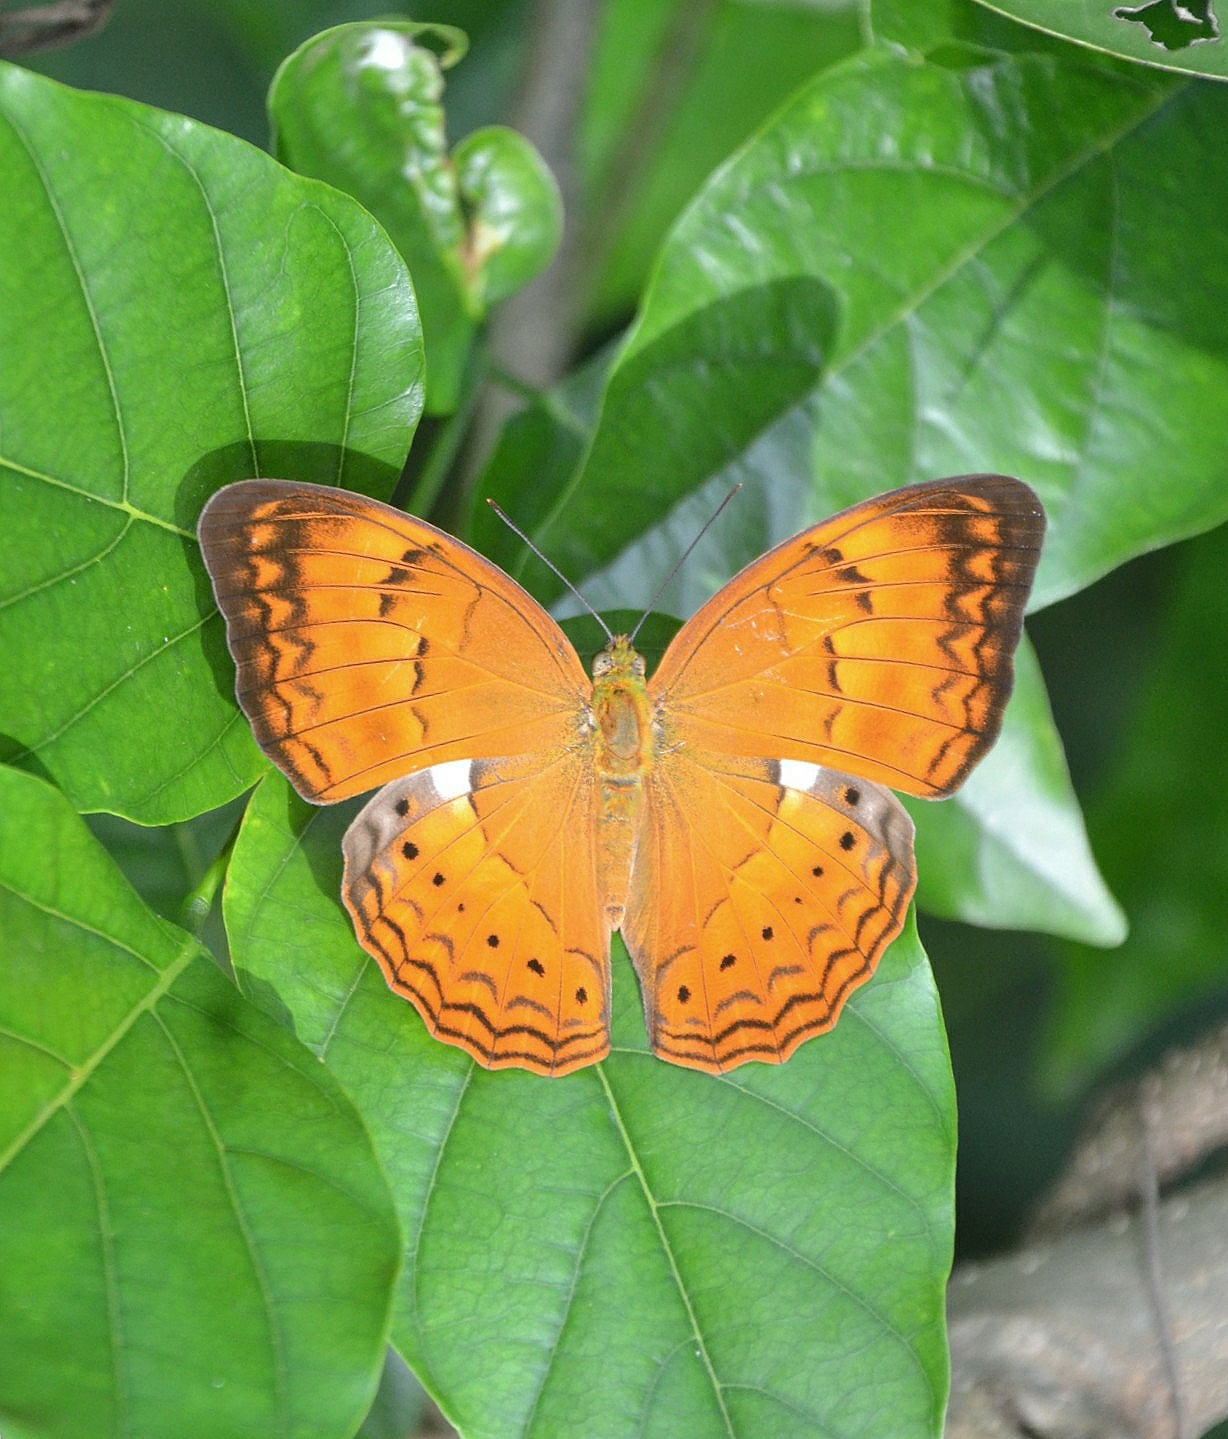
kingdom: Animalia
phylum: Arthropoda
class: Insecta
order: Lepidoptera
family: Nymphalidae
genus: Cirrochroa
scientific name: Cirrochroa thais
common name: Tamil yeoman
